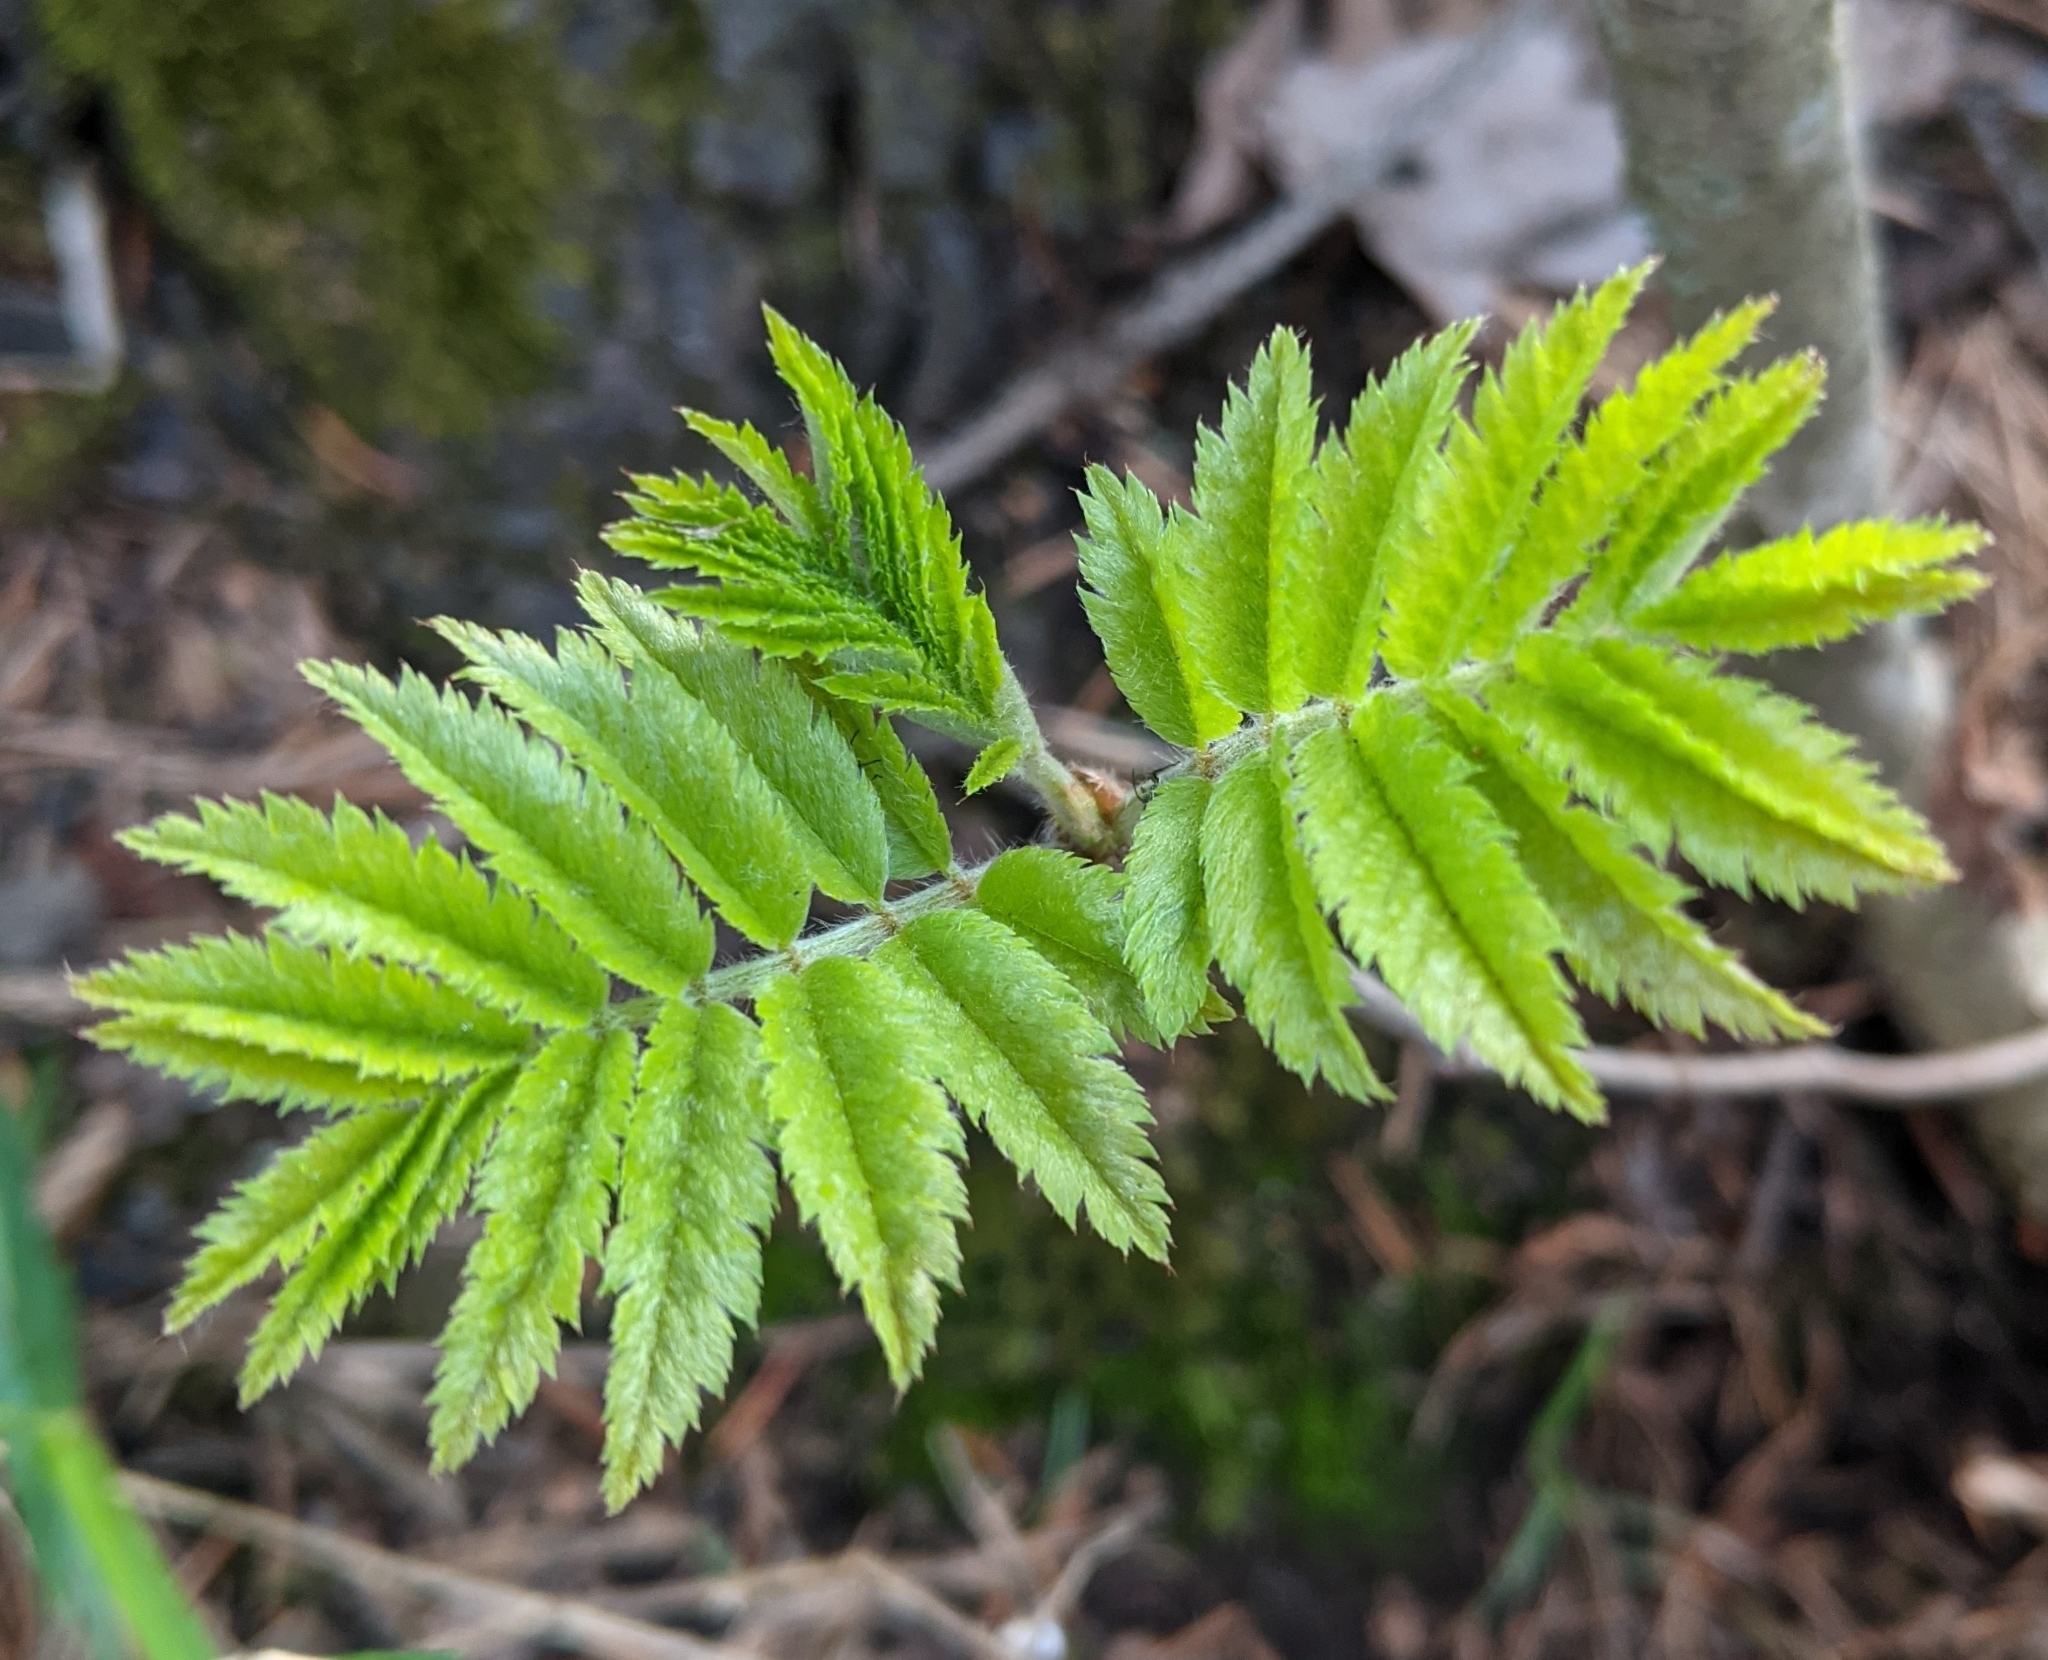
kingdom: Plantae
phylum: Tracheophyta
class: Magnoliopsida
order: Rosales
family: Rosaceae
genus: Sorbus
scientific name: Sorbus aucuparia
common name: Rowan
